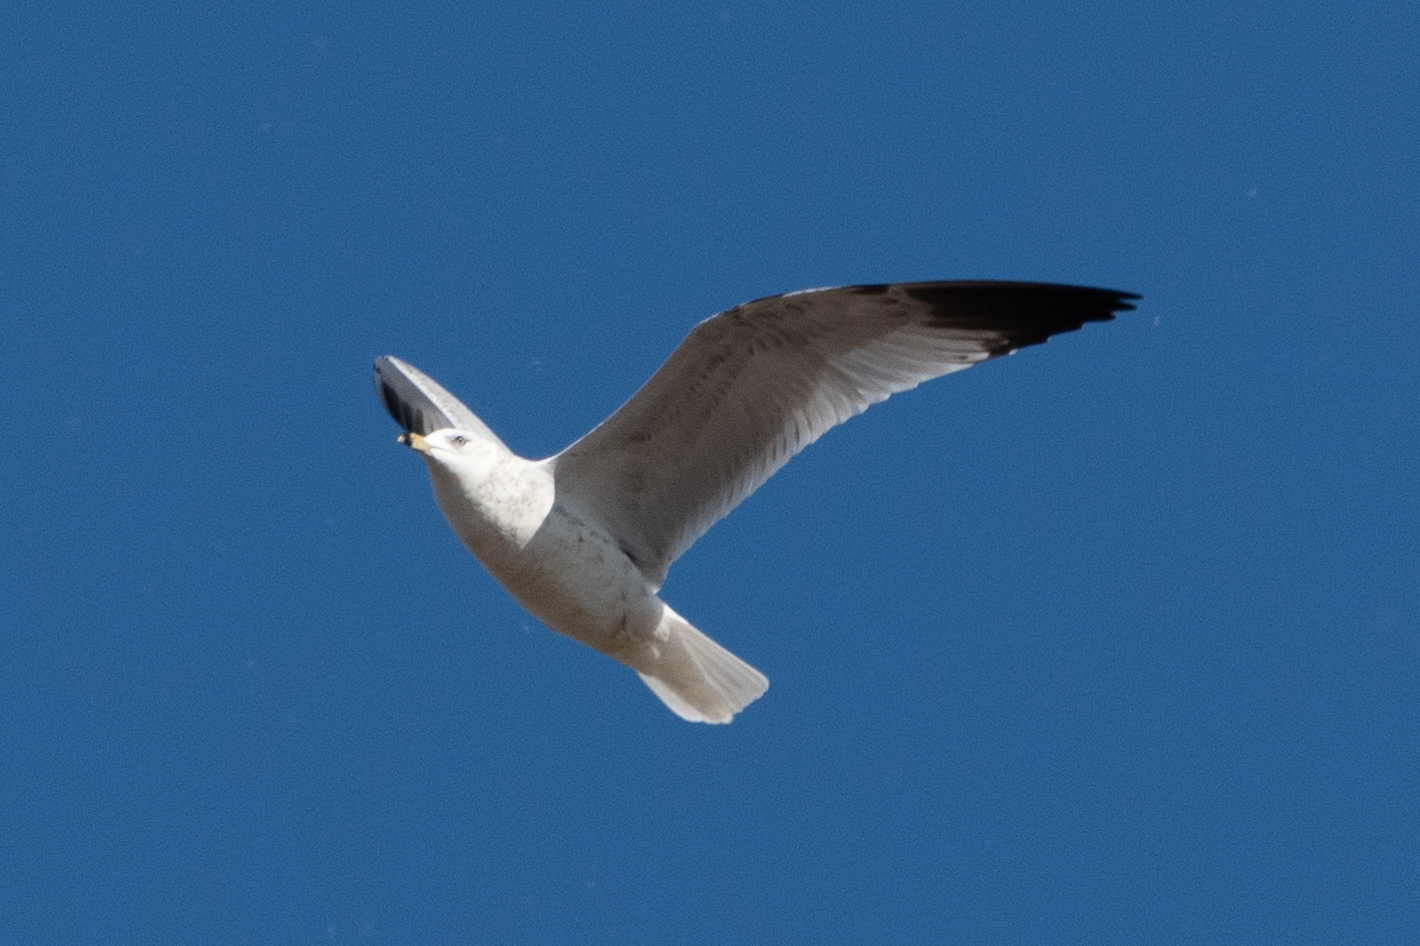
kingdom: Animalia
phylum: Chordata
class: Aves
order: Charadriiformes
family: Laridae
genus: Larus
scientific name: Larus delawarensis
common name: Ring-billed gull
